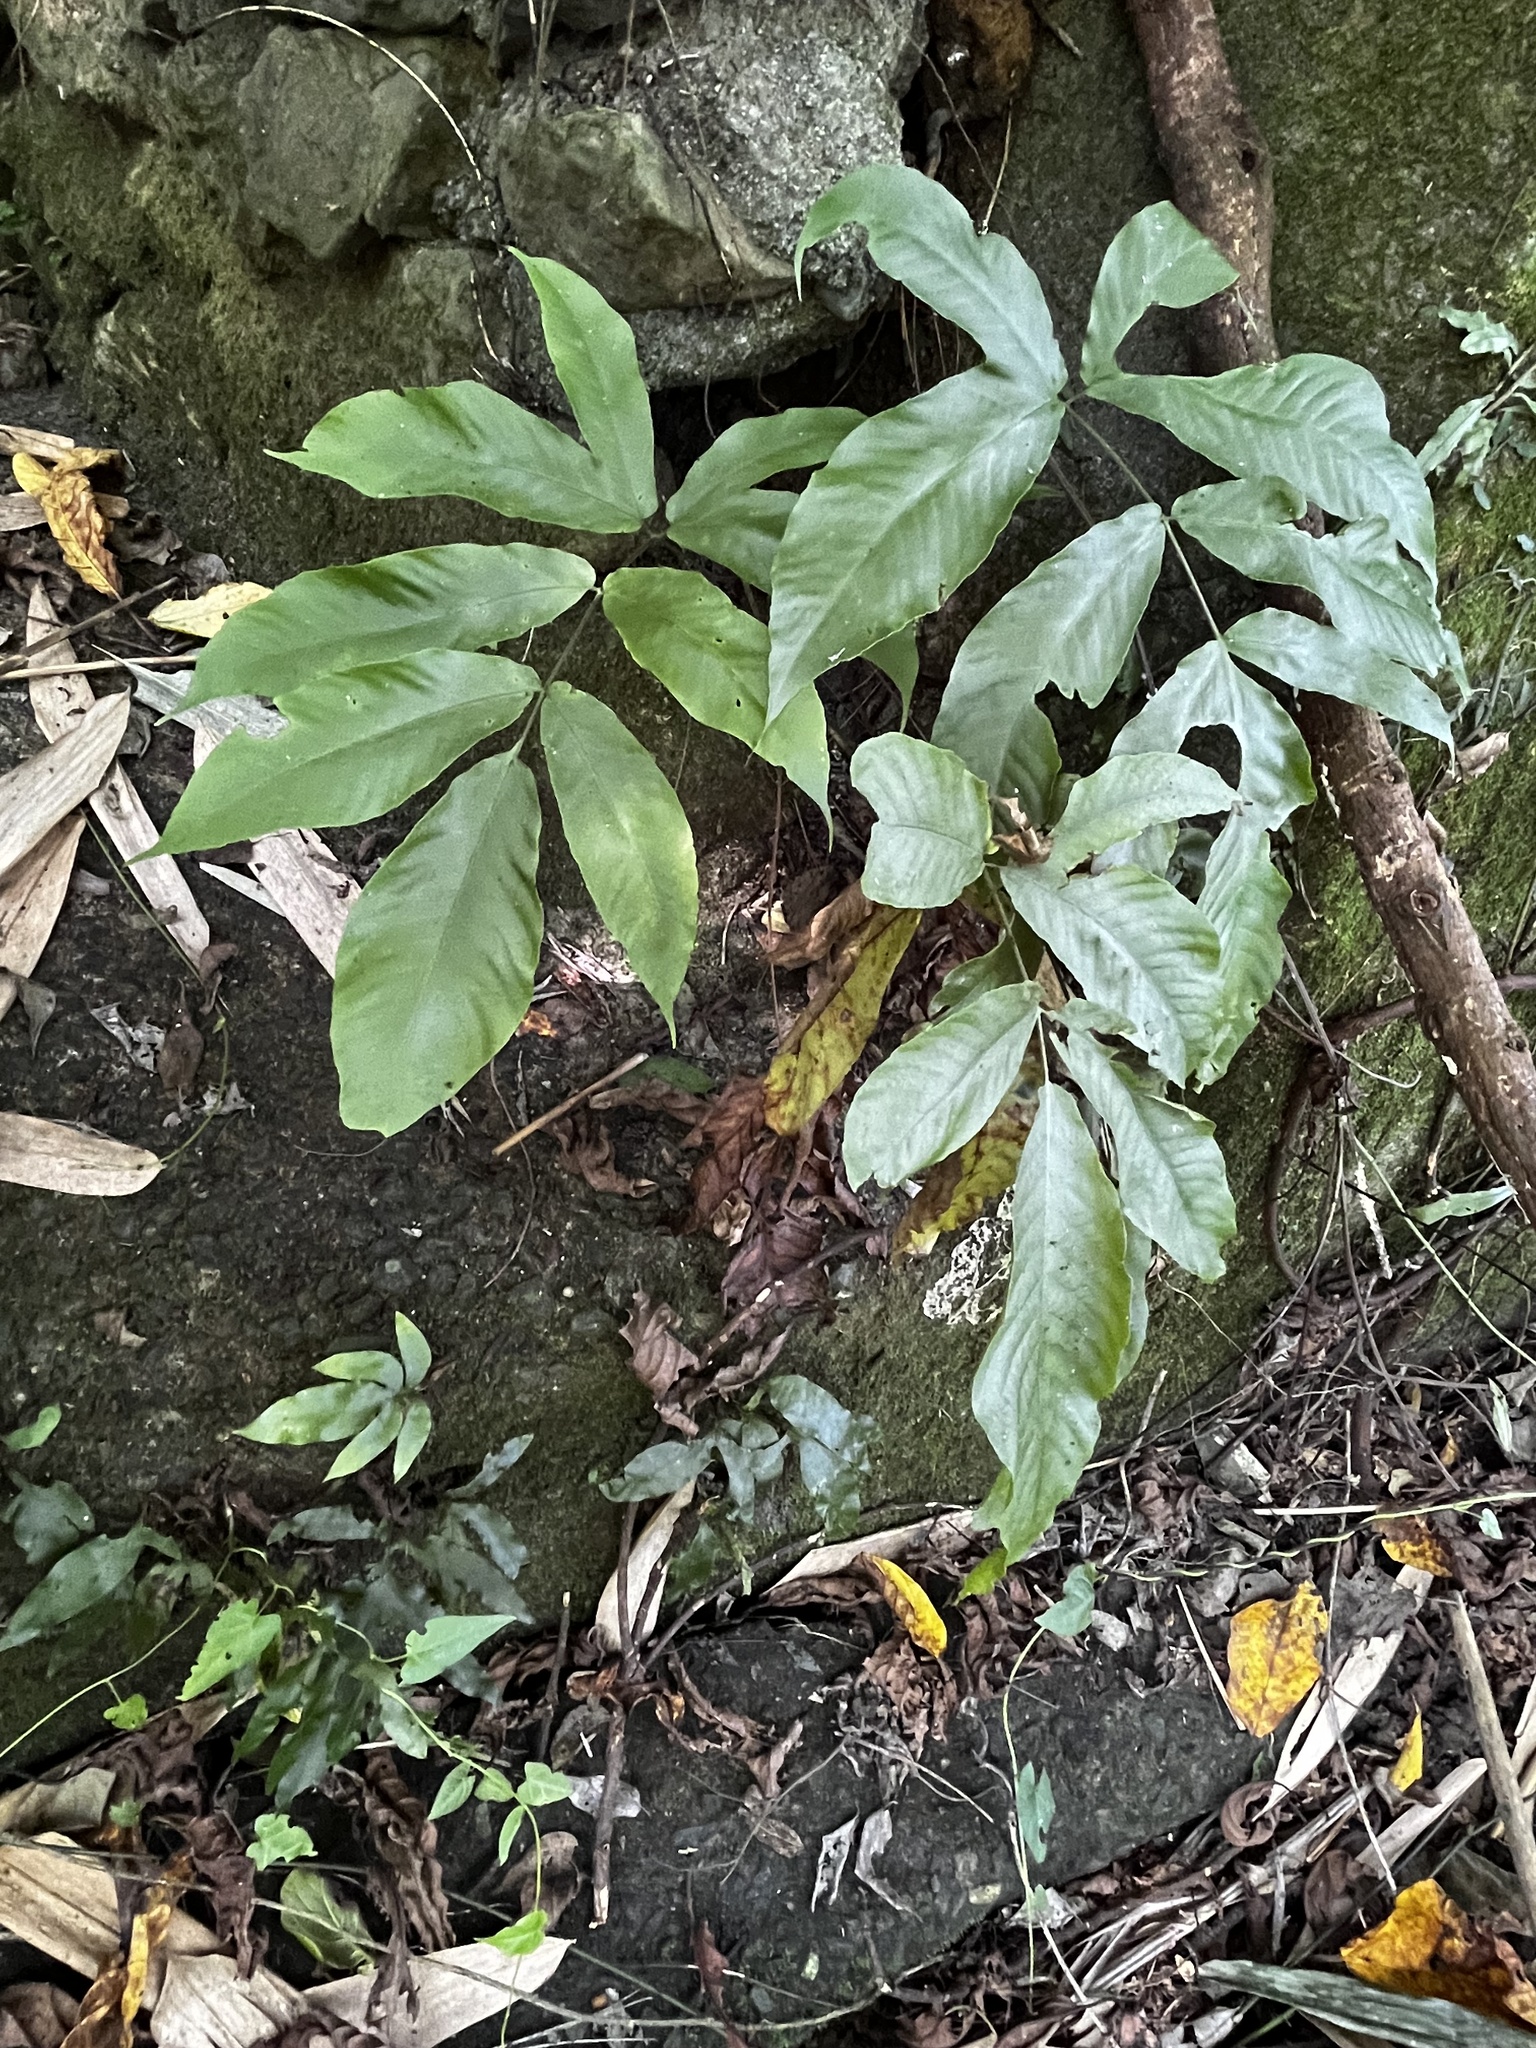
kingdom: Plantae
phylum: Tracheophyta
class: Polypodiopsida
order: Polypodiales
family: Tectariaceae
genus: Tectaria
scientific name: Tectaria polymorpha
